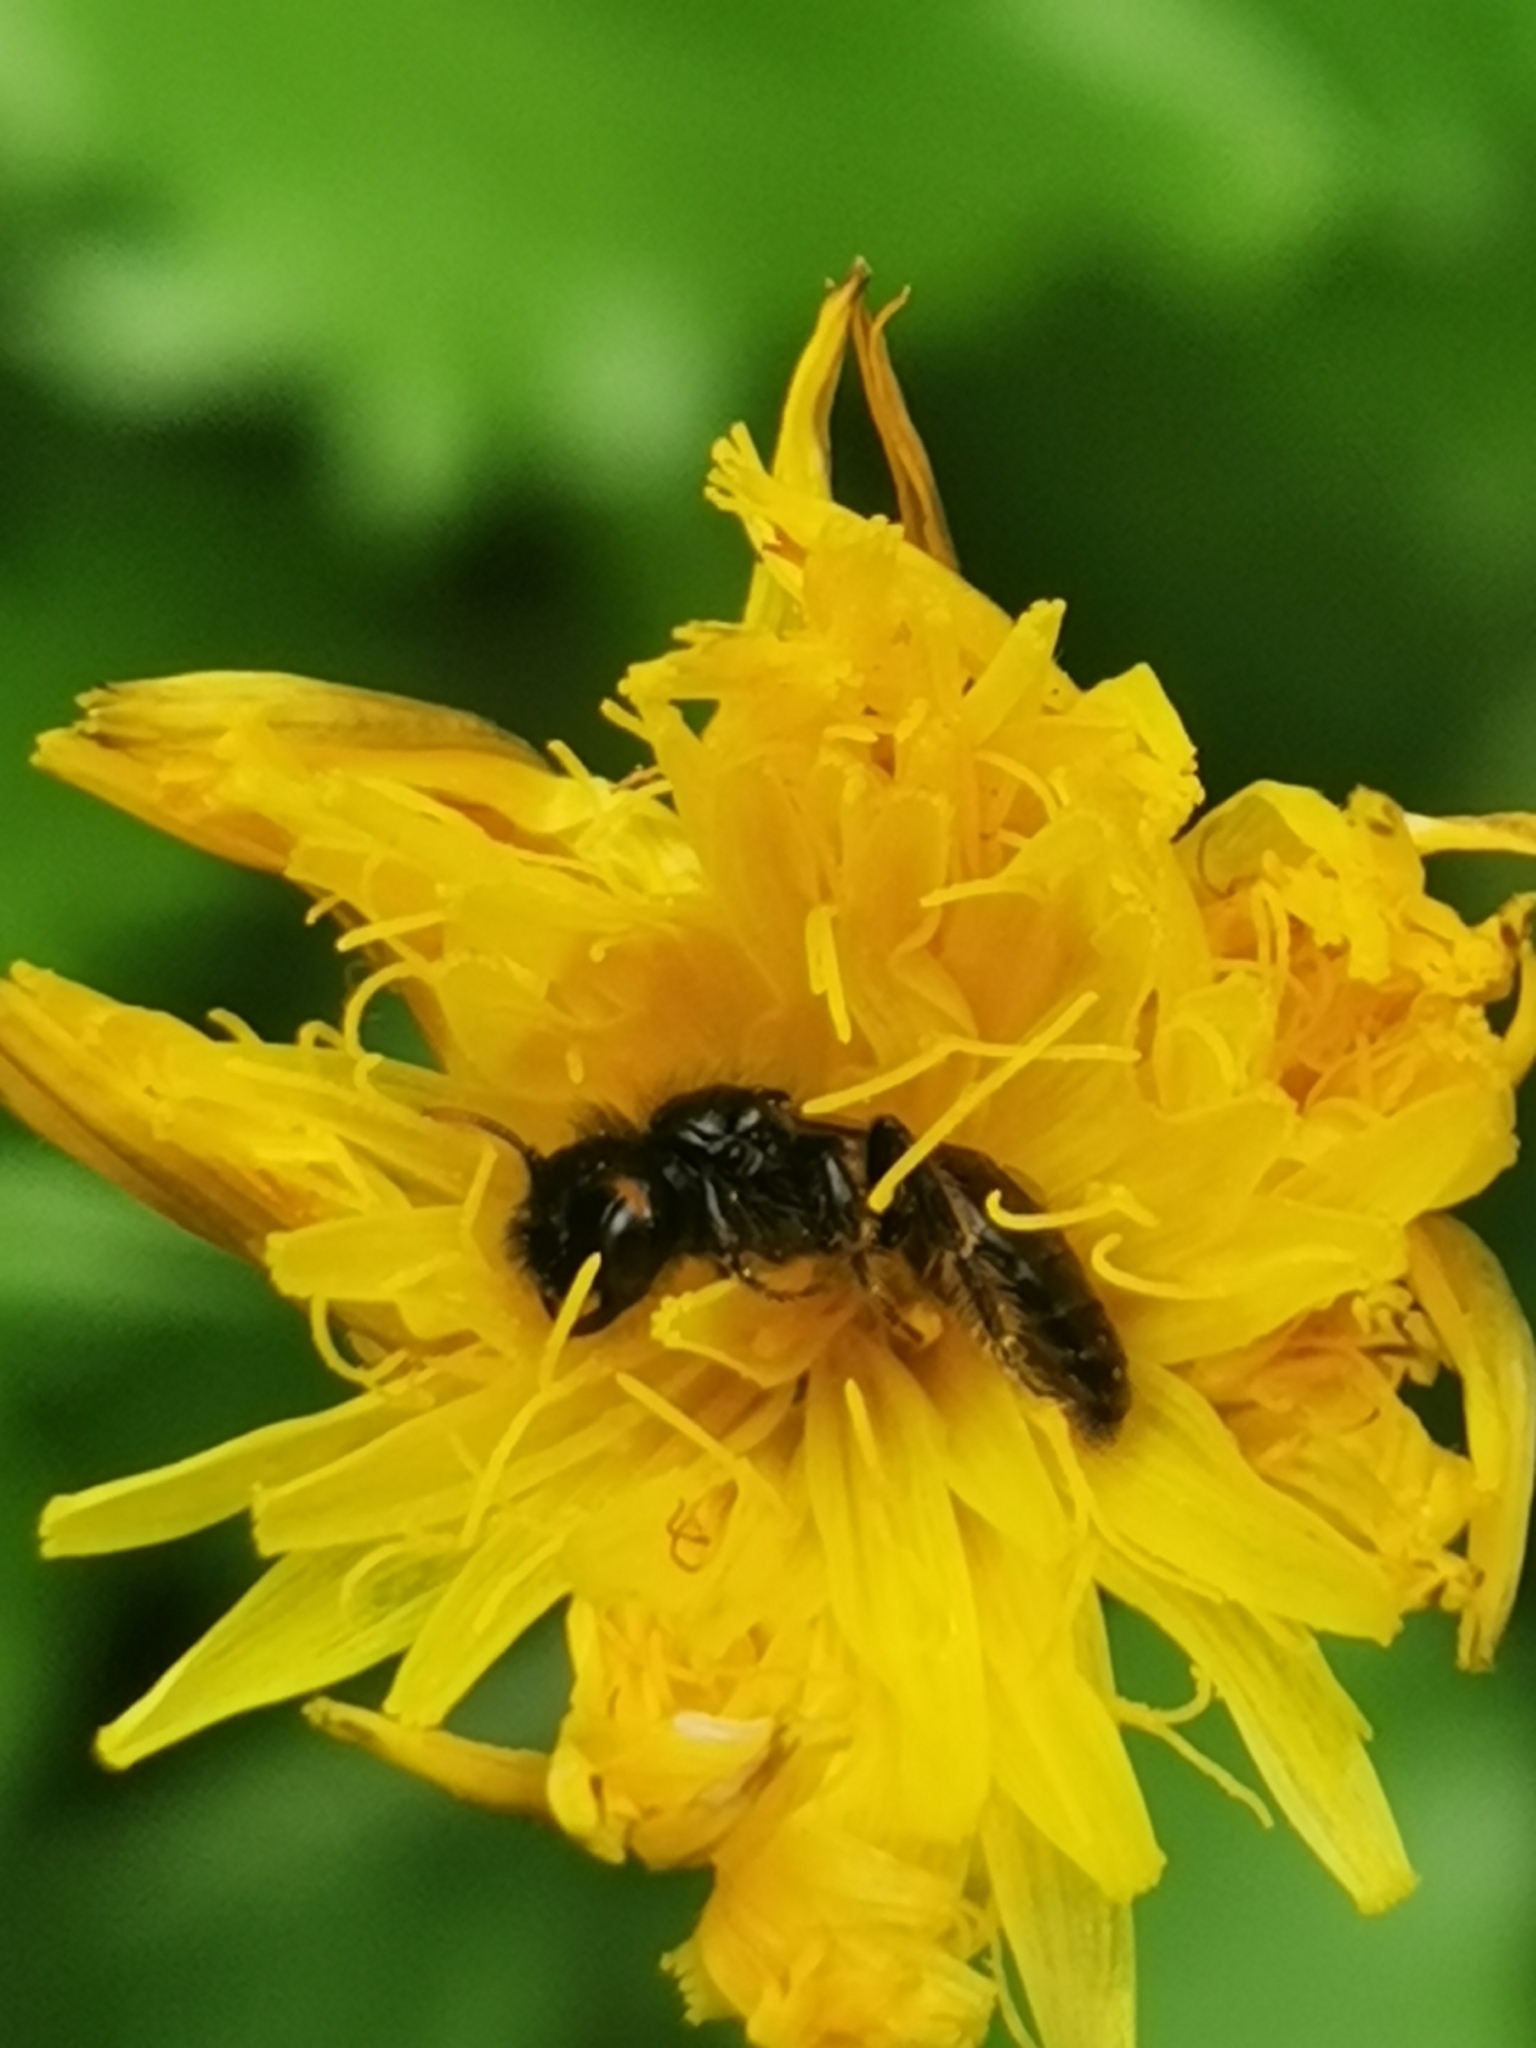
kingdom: Animalia
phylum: Arthropoda
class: Insecta
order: Hymenoptera
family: Andrenidae
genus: Panurgus
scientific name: Panurgus calcaratus
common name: Small shaggy bee
